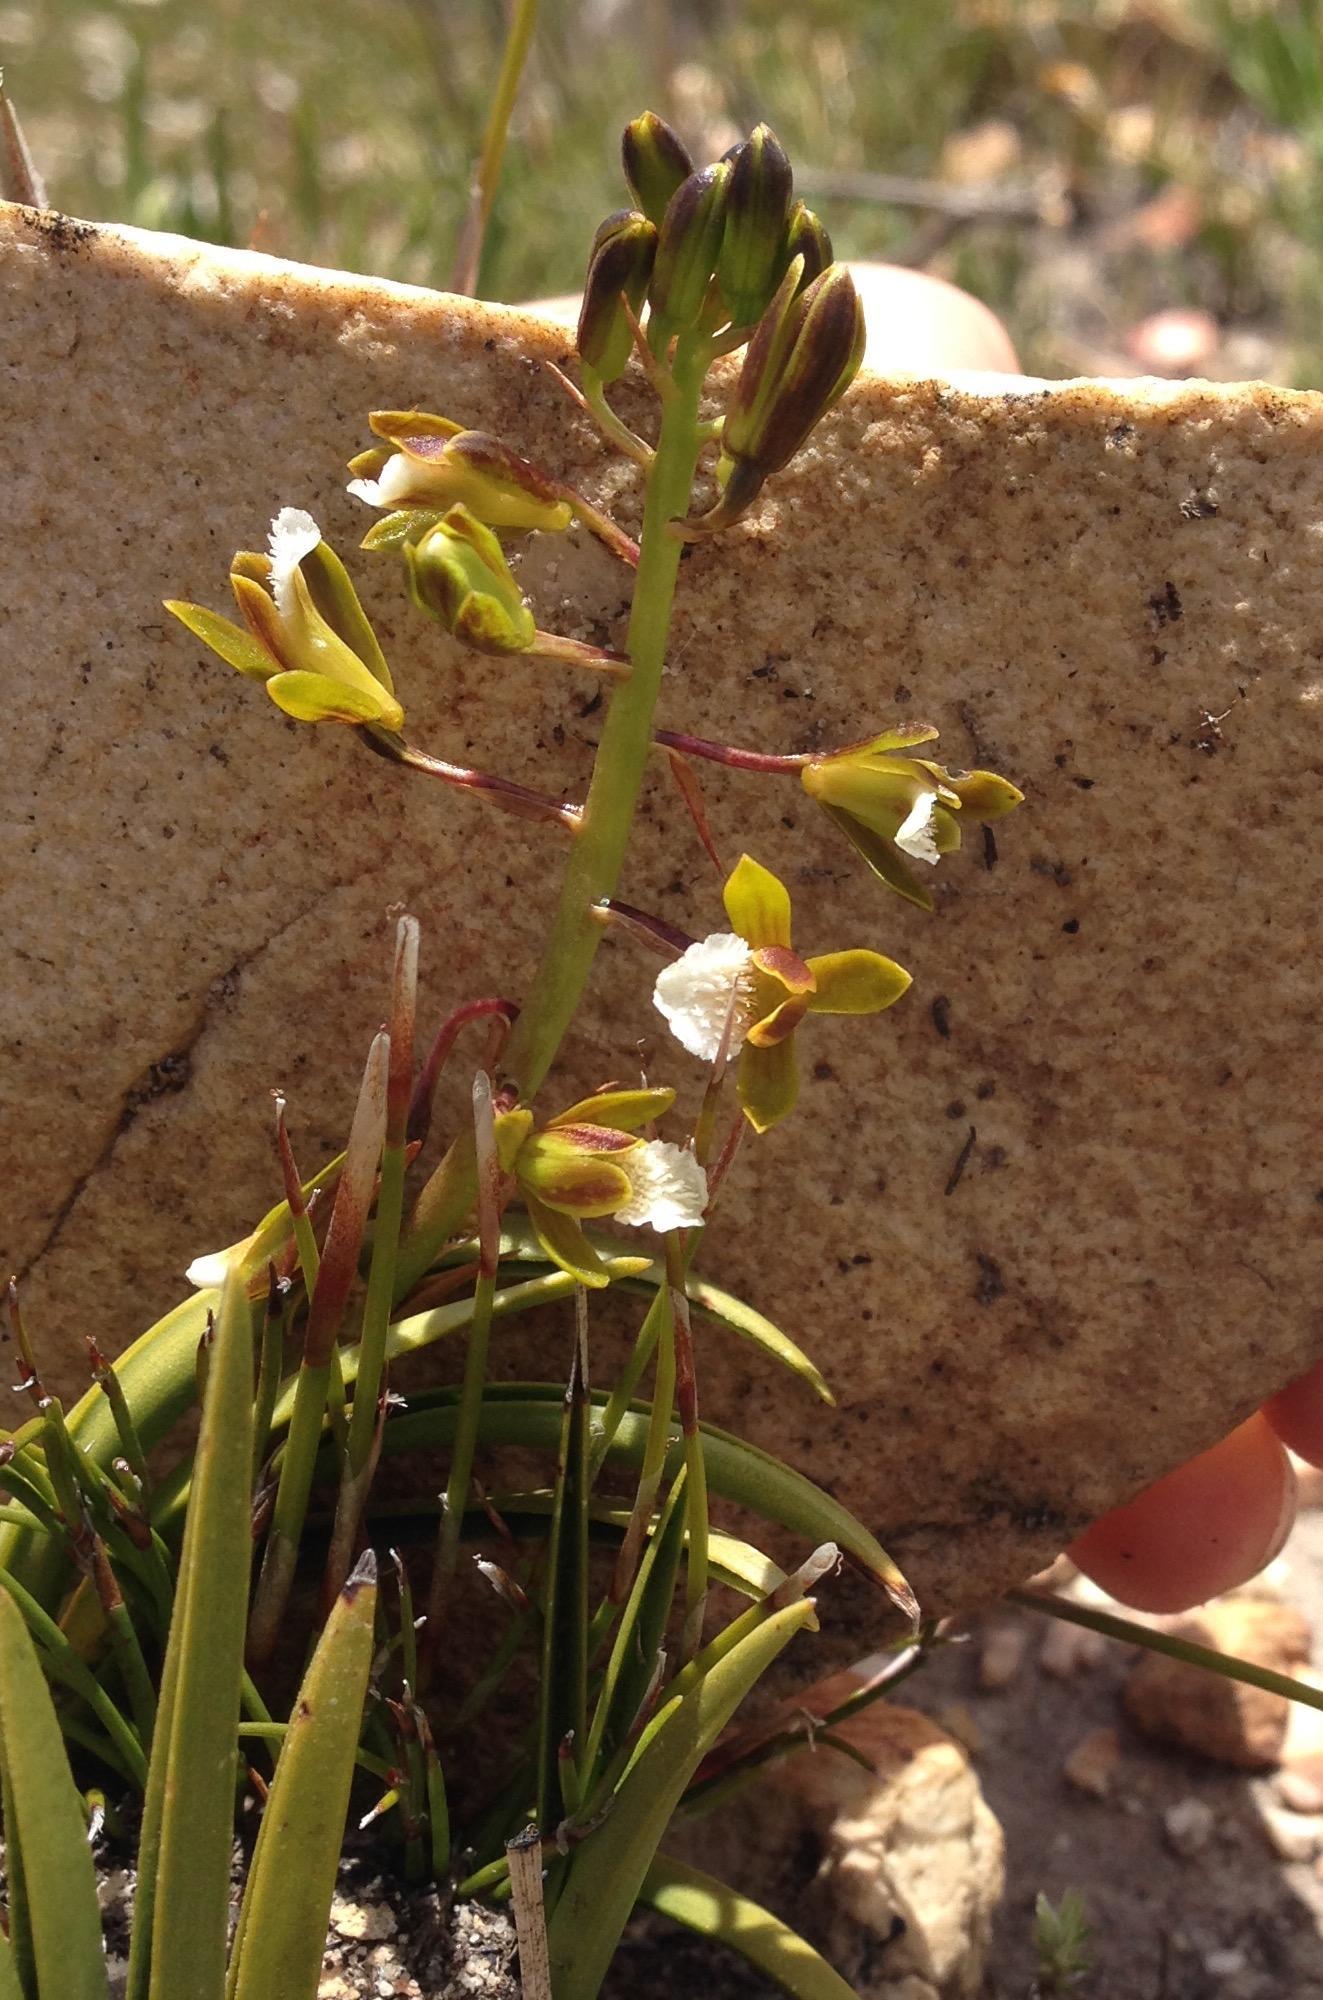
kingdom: Plantae
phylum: Tracheophyta
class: Liliopsida
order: Asparagales
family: Orchidaceae
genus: Eulophia
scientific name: Eulophia tristis
